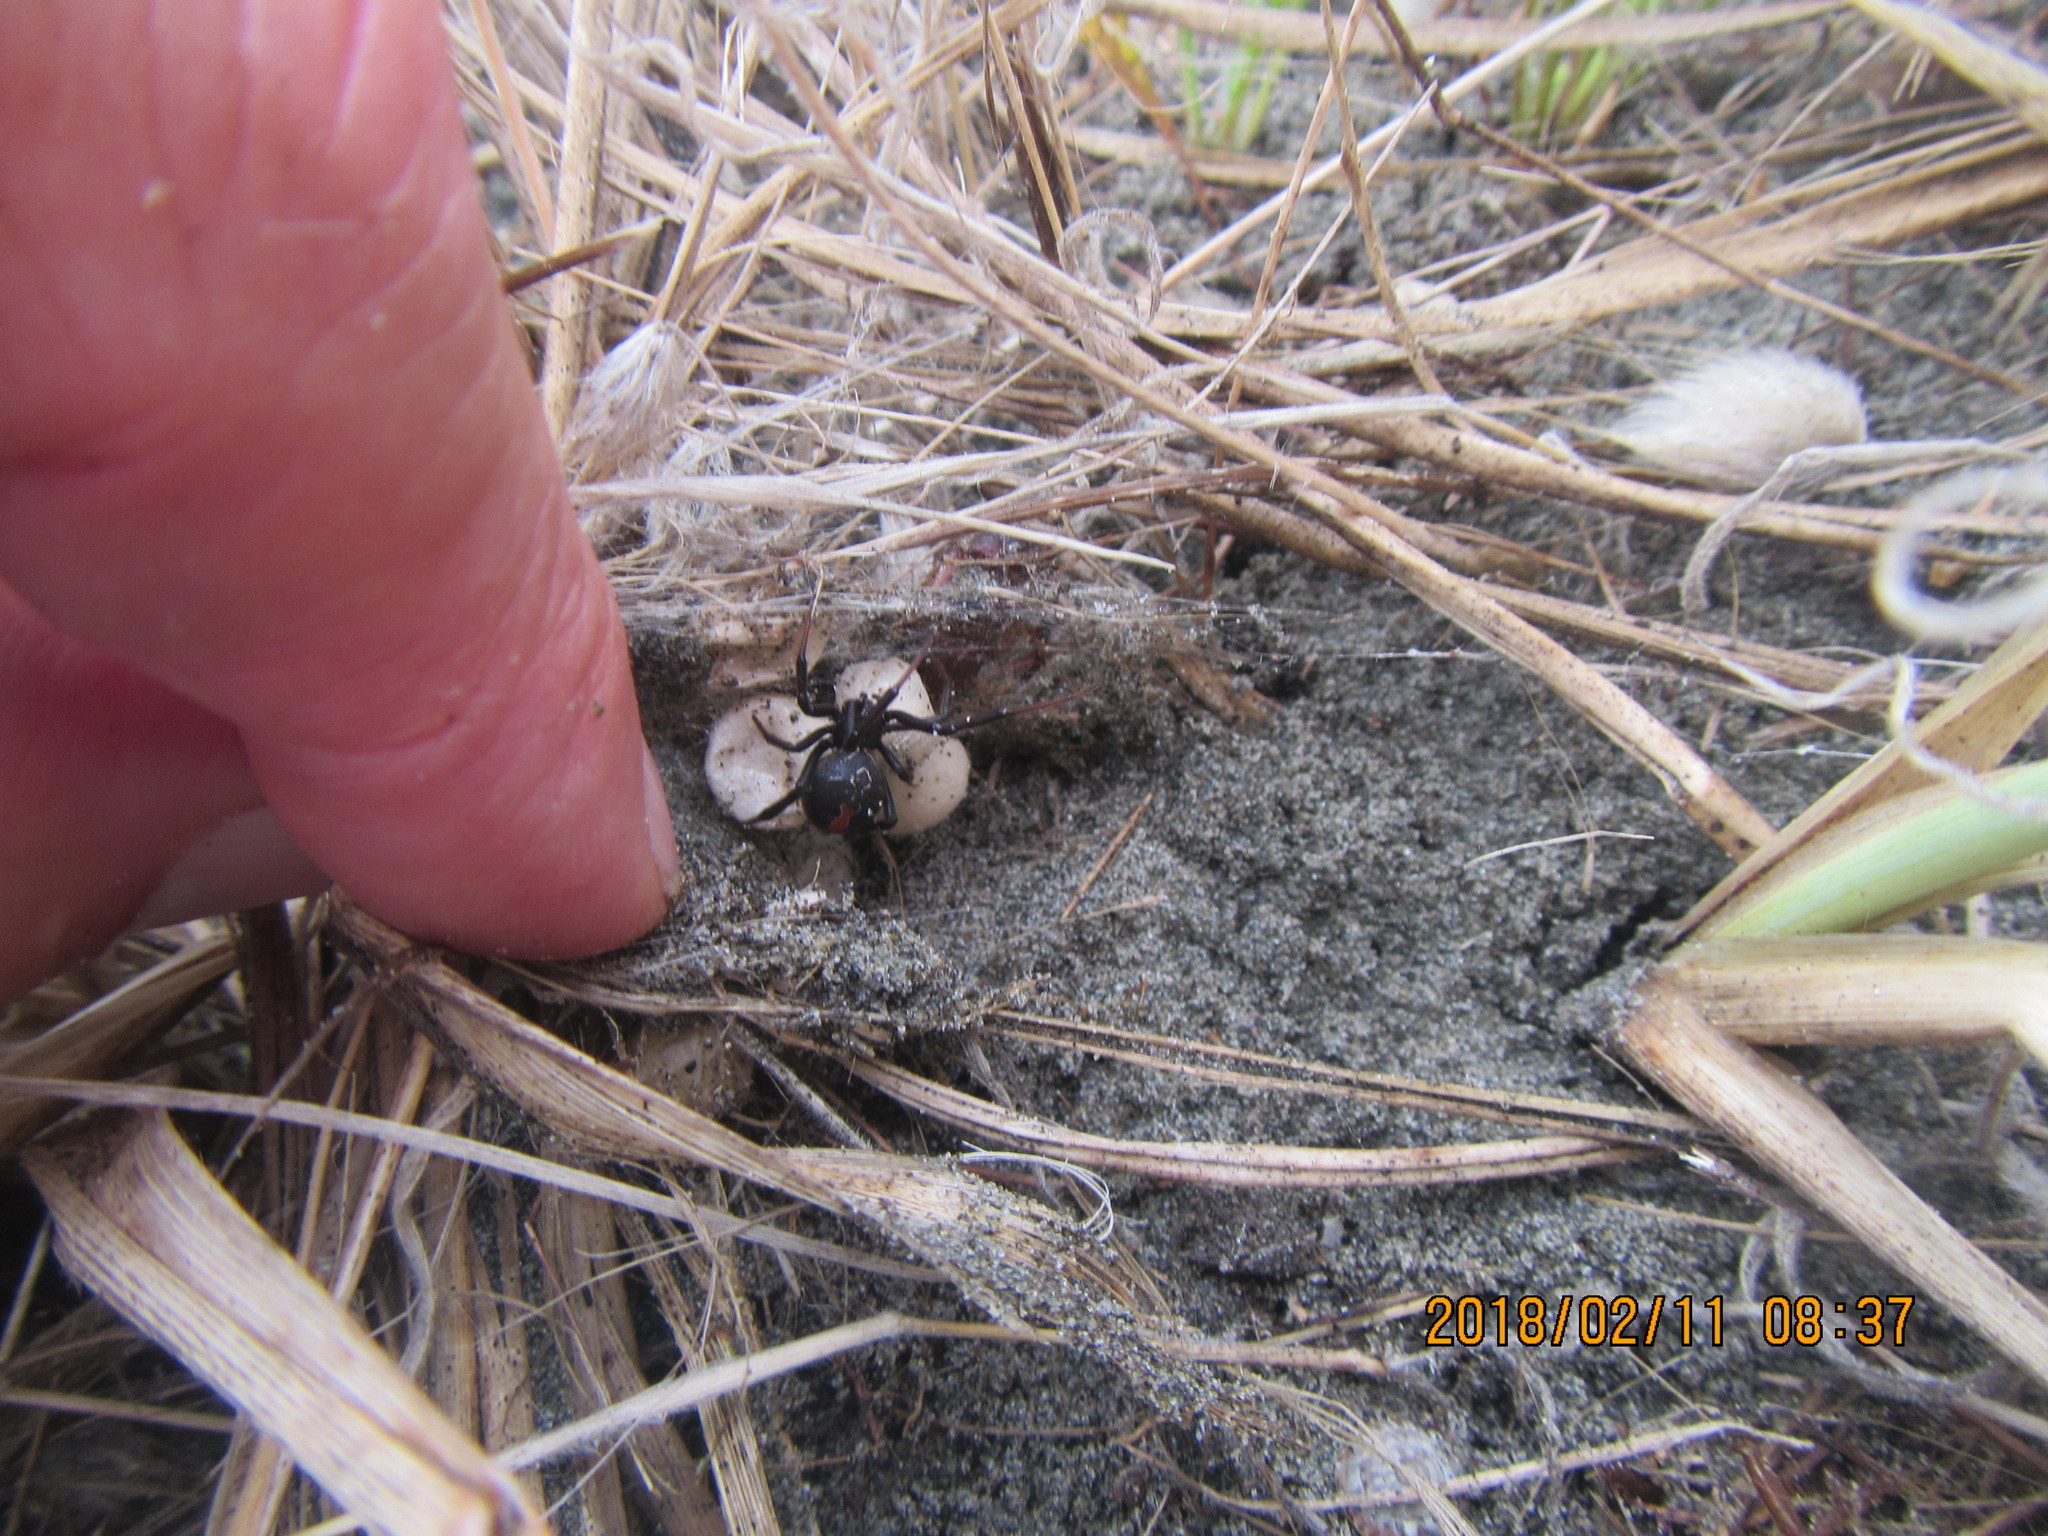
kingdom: Animalia
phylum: Arthropoda
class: Arachnida
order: Araneae
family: Theridiidae
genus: Latrodectus
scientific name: Latrodectus katipo
